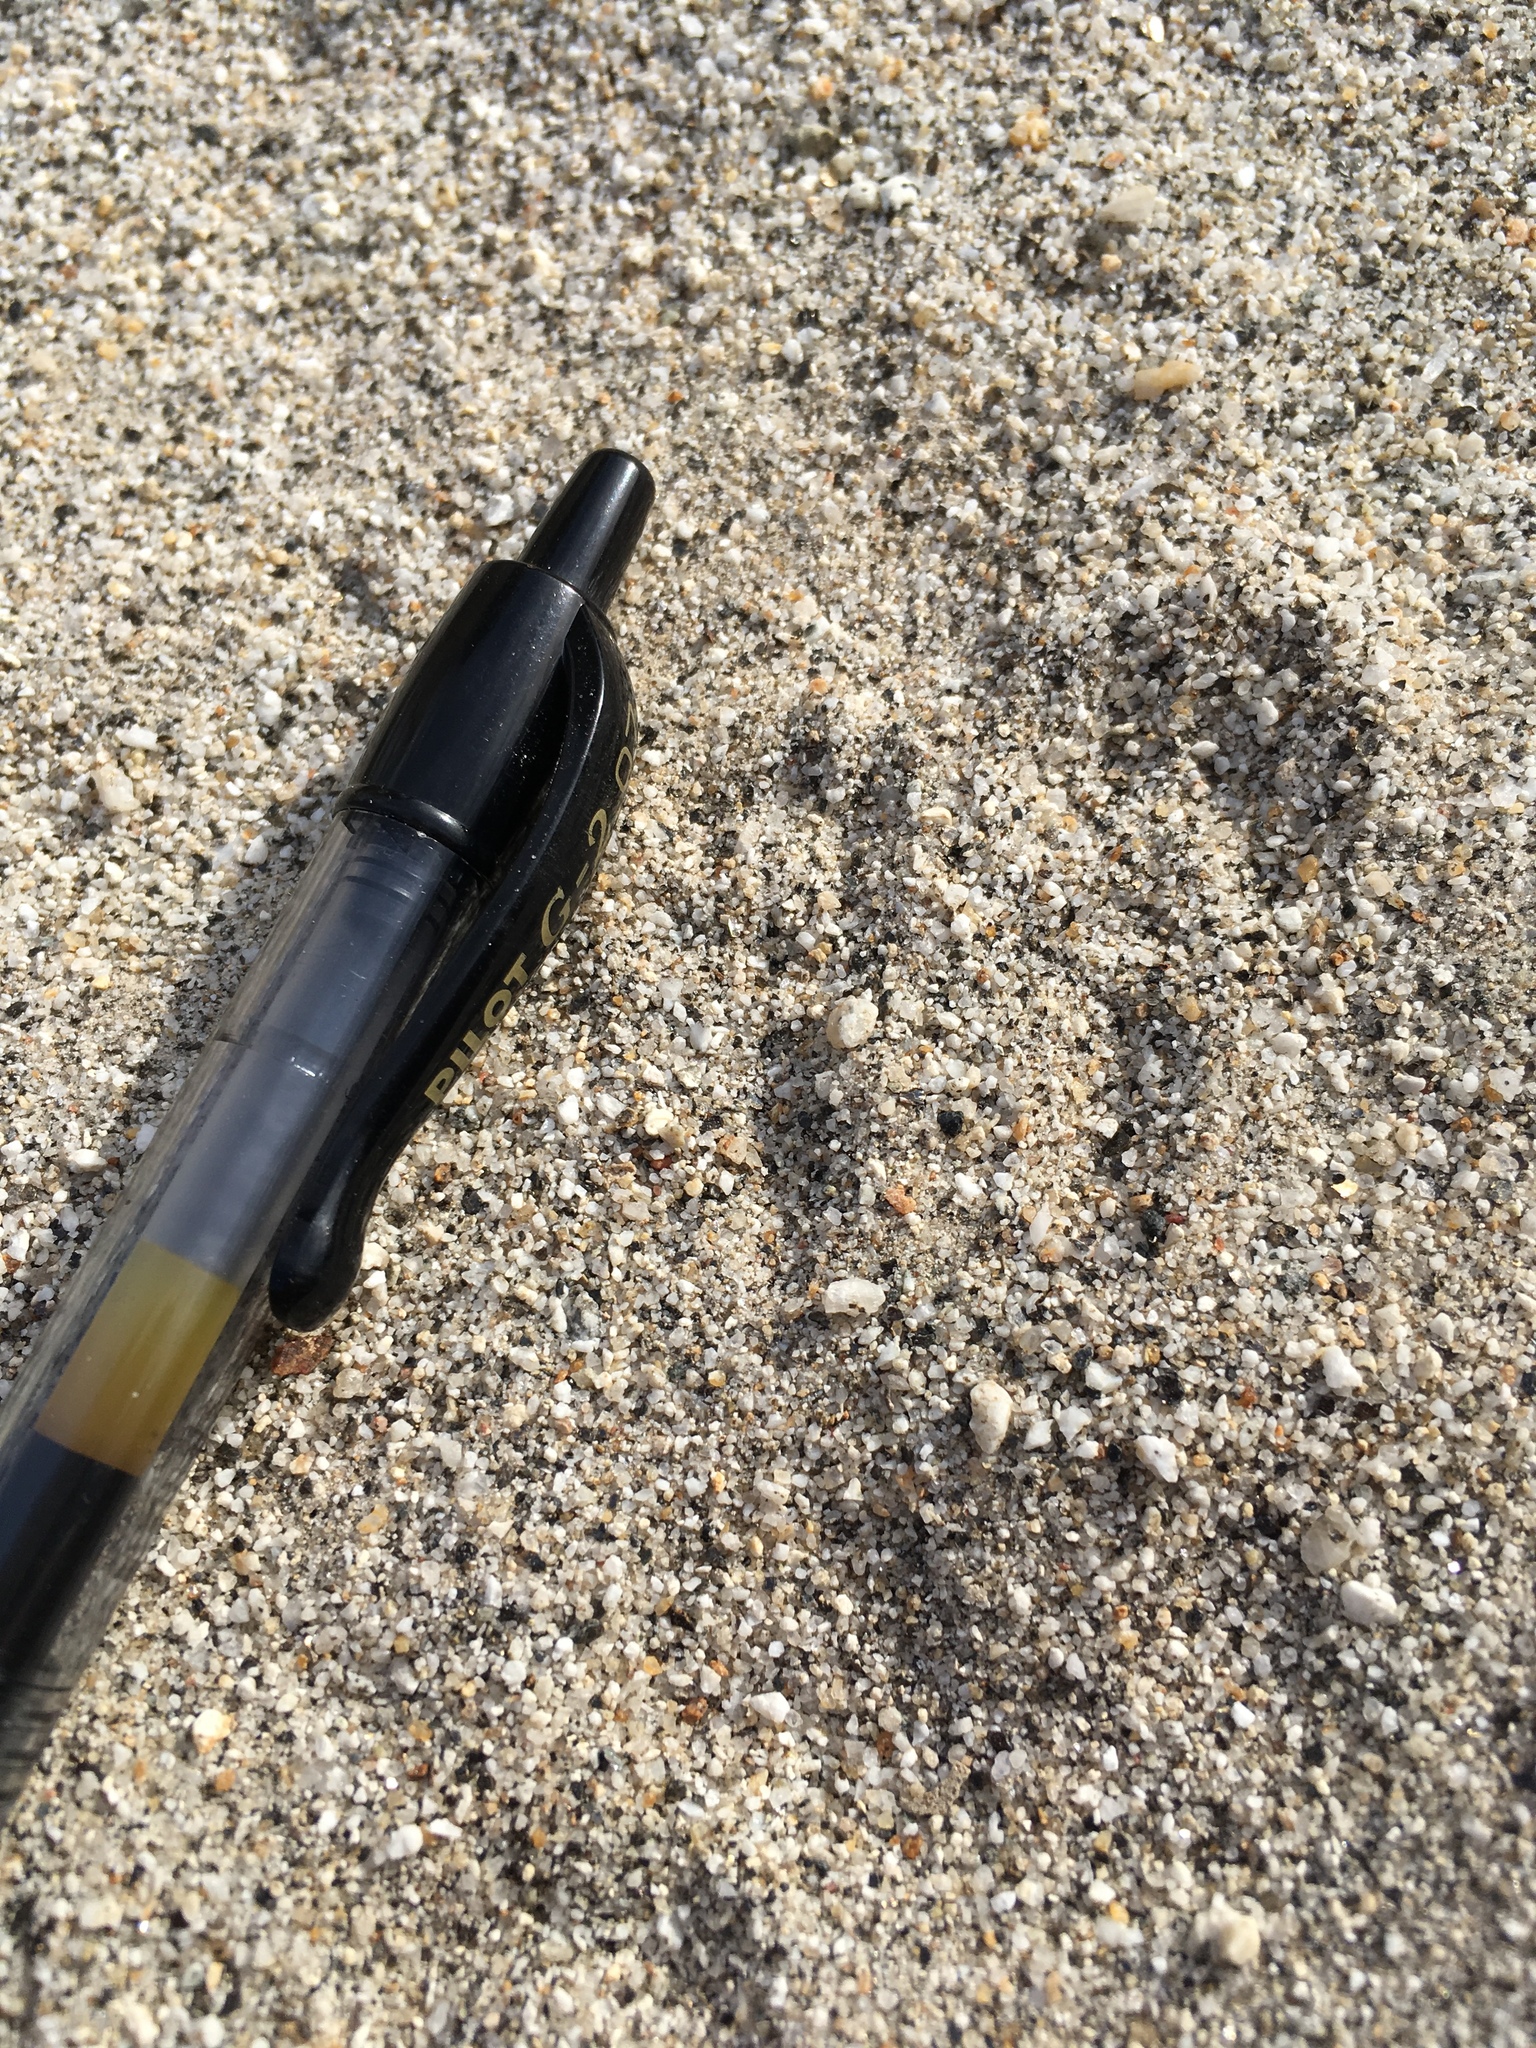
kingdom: Animalia
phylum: Chordata
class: Mammalia
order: Rodentia
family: Heteromyidae
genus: Dipodomys
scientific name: Dipodomys deserti
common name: Desert kangaroo rat
